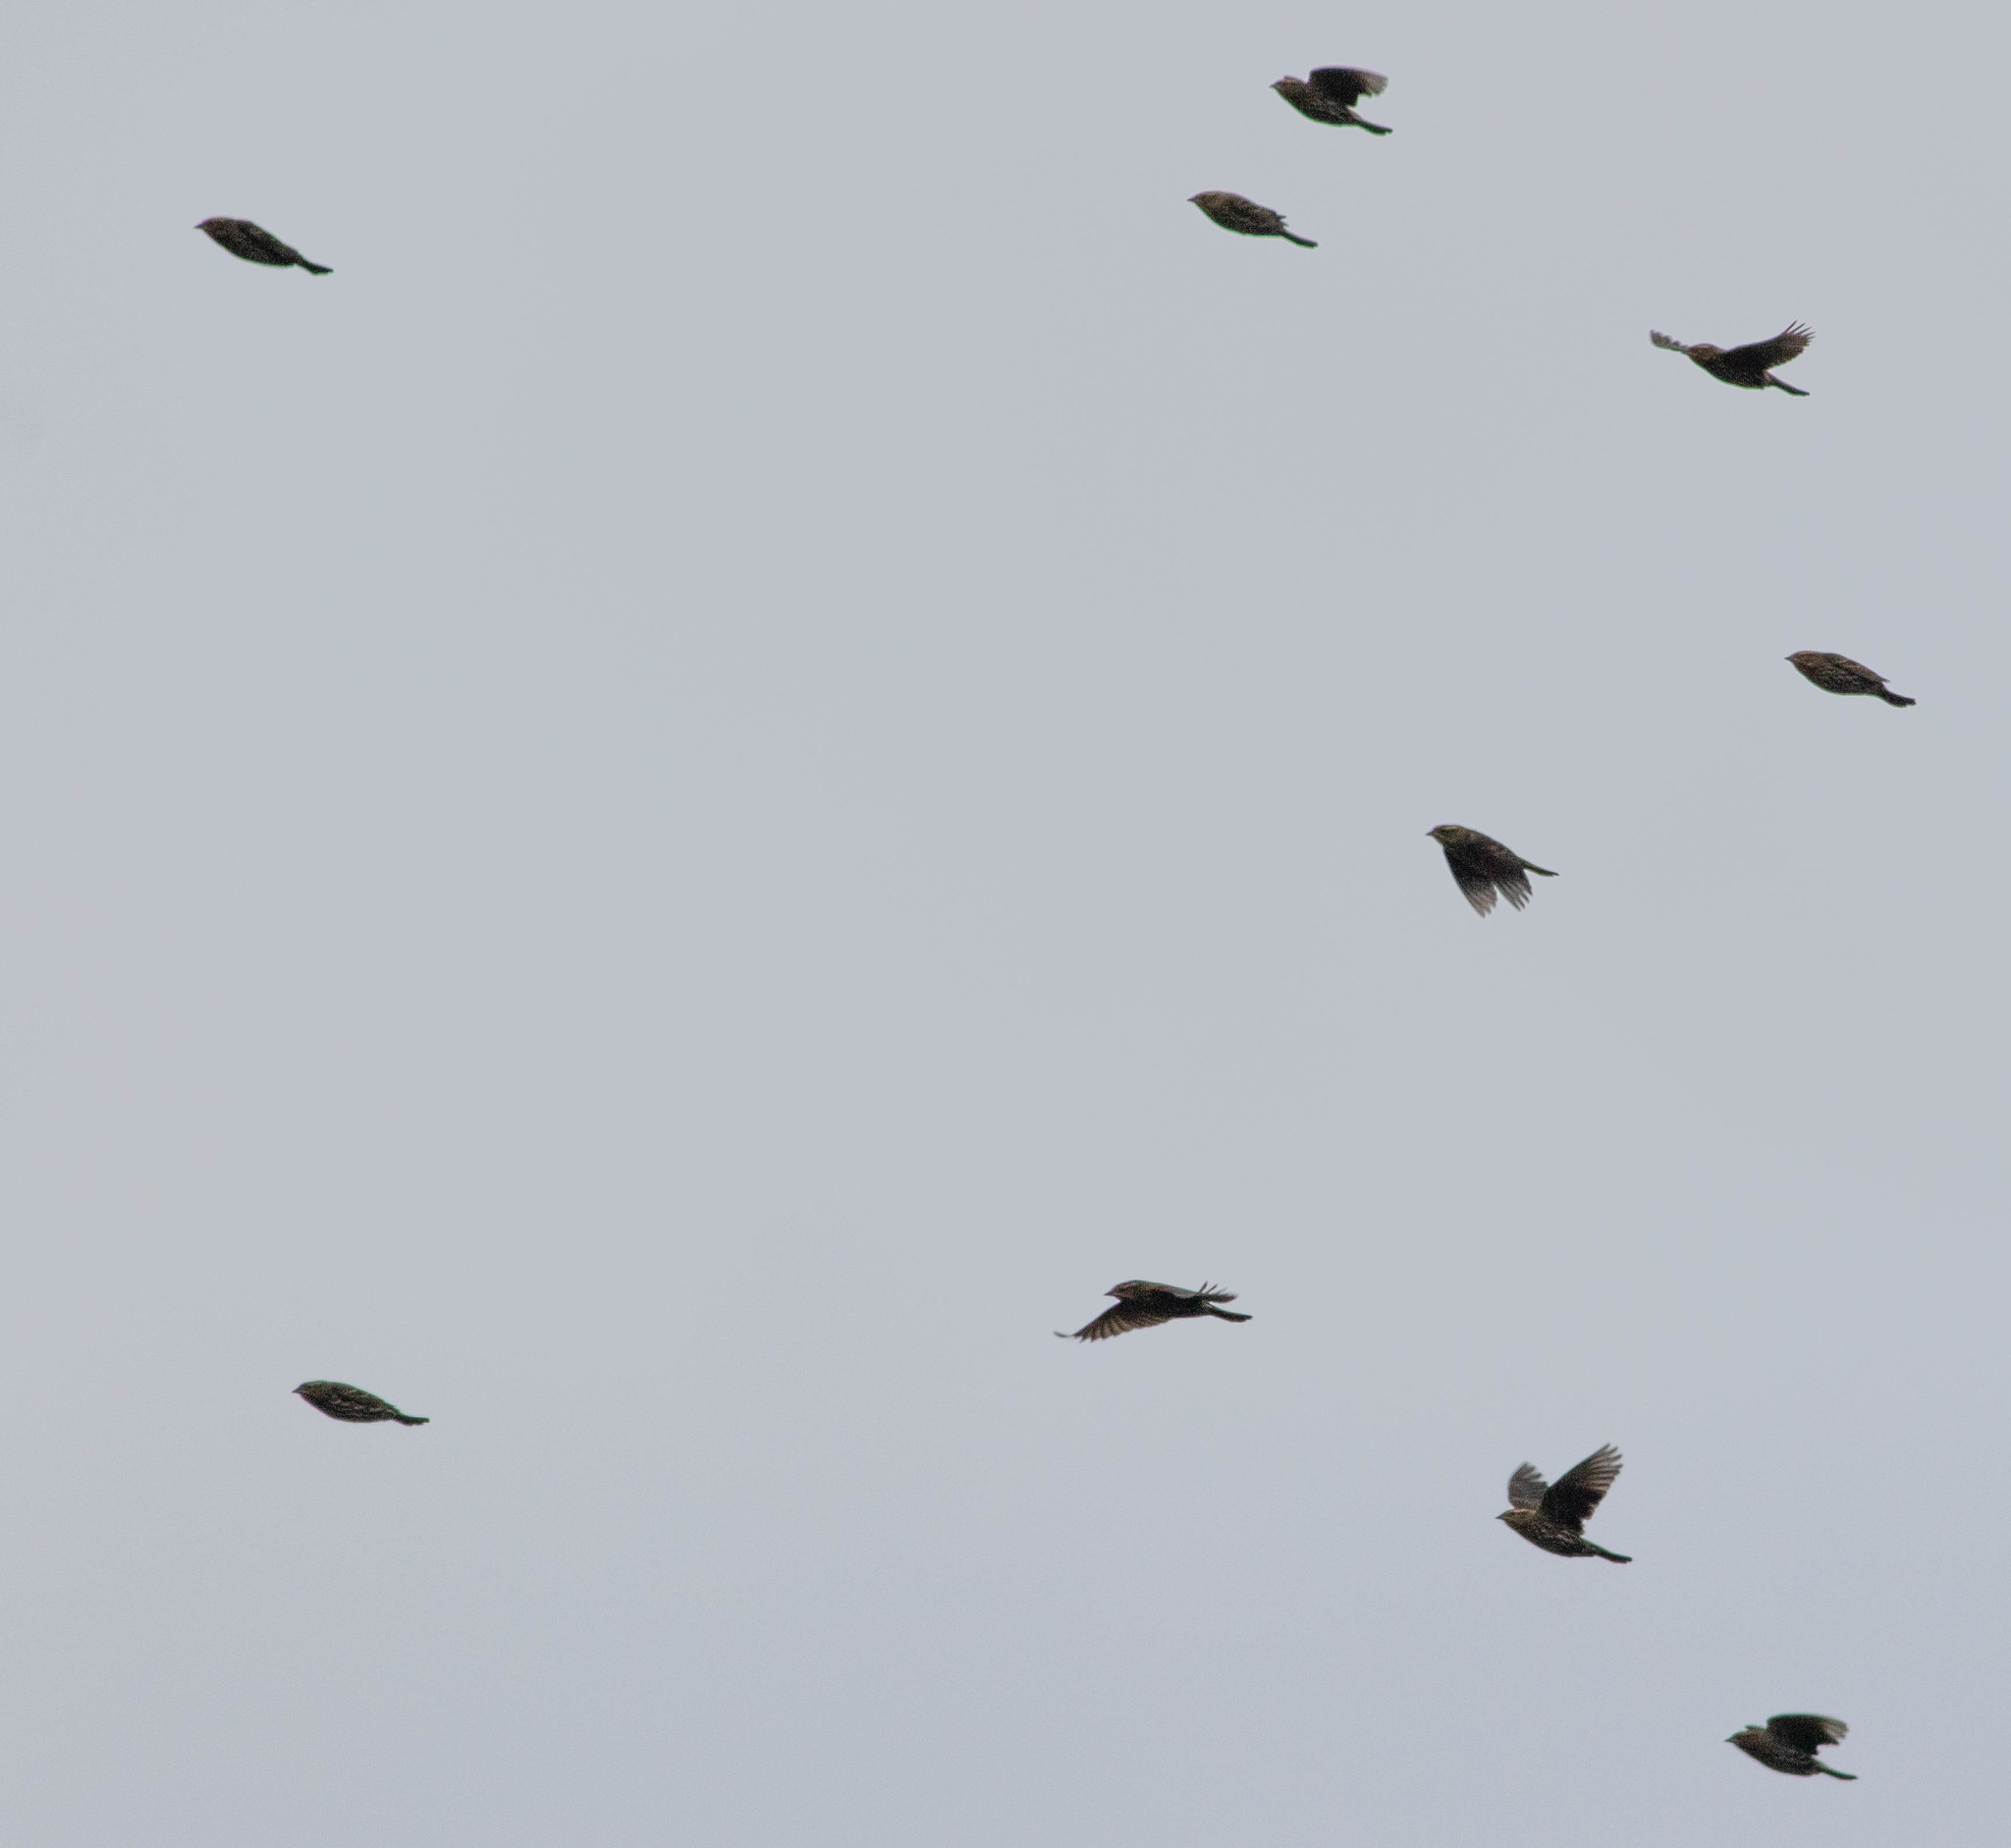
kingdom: Animalia
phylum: Chordata
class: Aves
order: Passeriformes
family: Icteridae
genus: Agelaius
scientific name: Agelaius phoeniceus
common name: Red-winged blackbird
